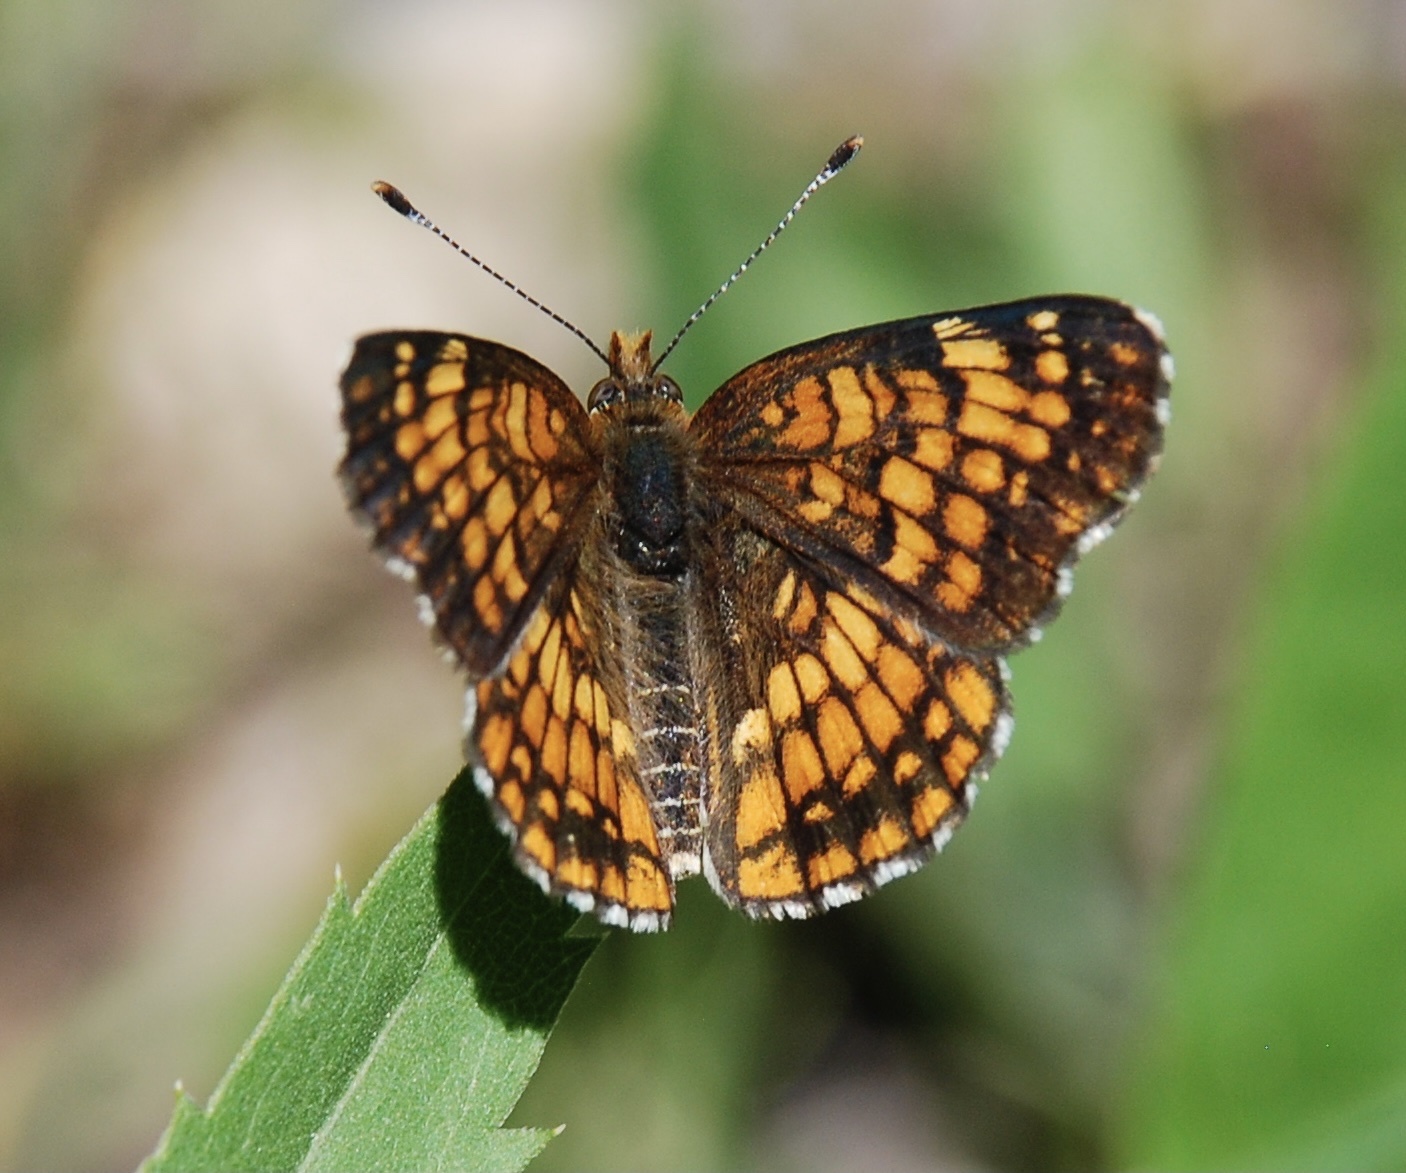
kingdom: Animalia
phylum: Arthropoda
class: Insecta
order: Lepidoptera
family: Nymphalidae
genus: Chlosyne
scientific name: Chlosyne palla
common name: Northern checkerspot
